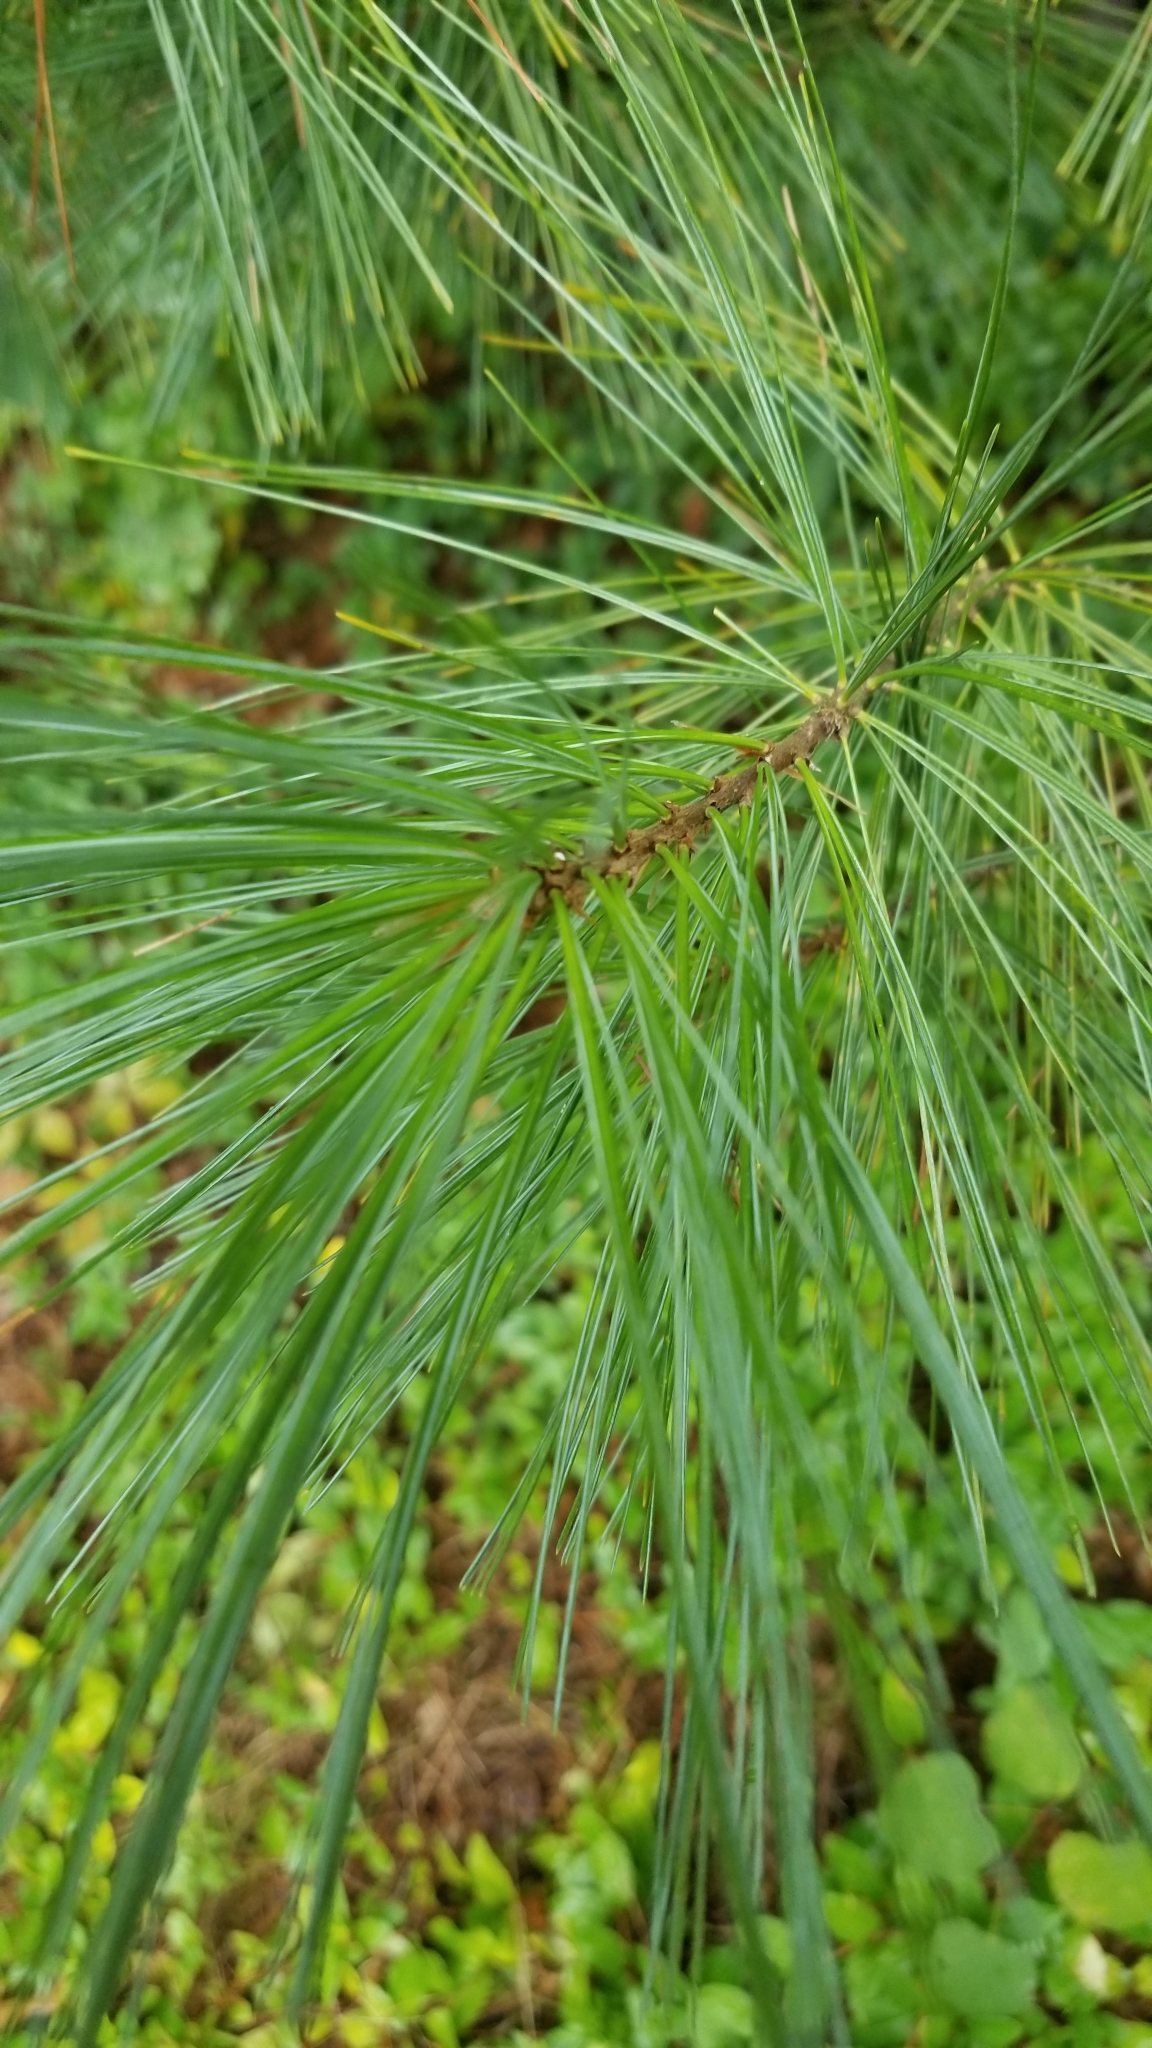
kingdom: Plantae
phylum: Tracheophyta
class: Pinopsida
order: Pinales
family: Pinaceae
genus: Pinus
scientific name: Pinus strobus
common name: Weymouth pine
